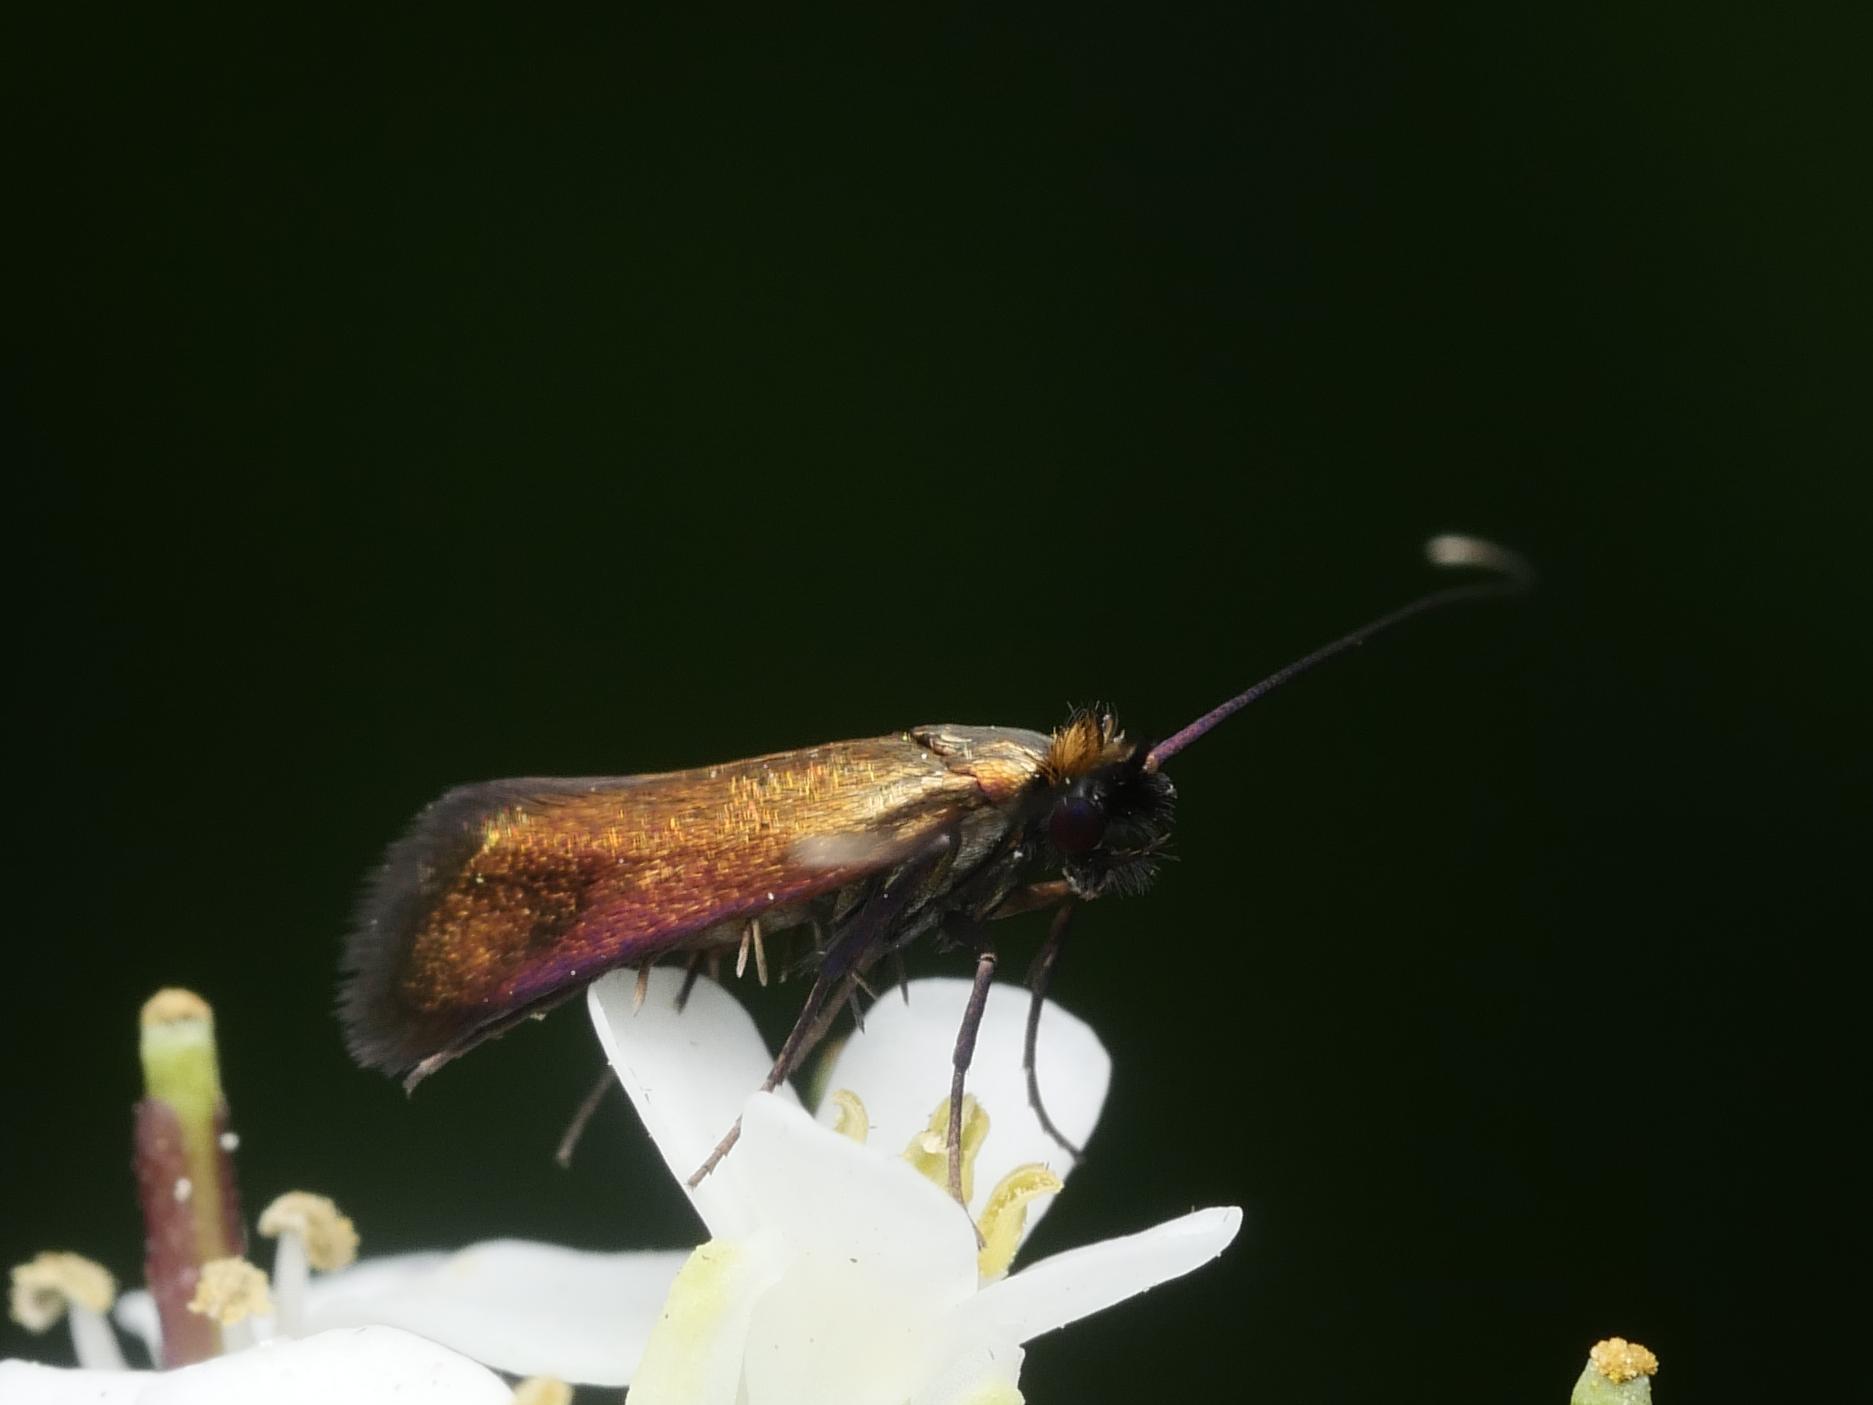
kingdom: Animalia
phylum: Arthropoda
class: Insecta
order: Lepidoptera
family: Adelidae
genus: Cauchas
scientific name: Cauchas rufimitrella
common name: Meadow long-horn
